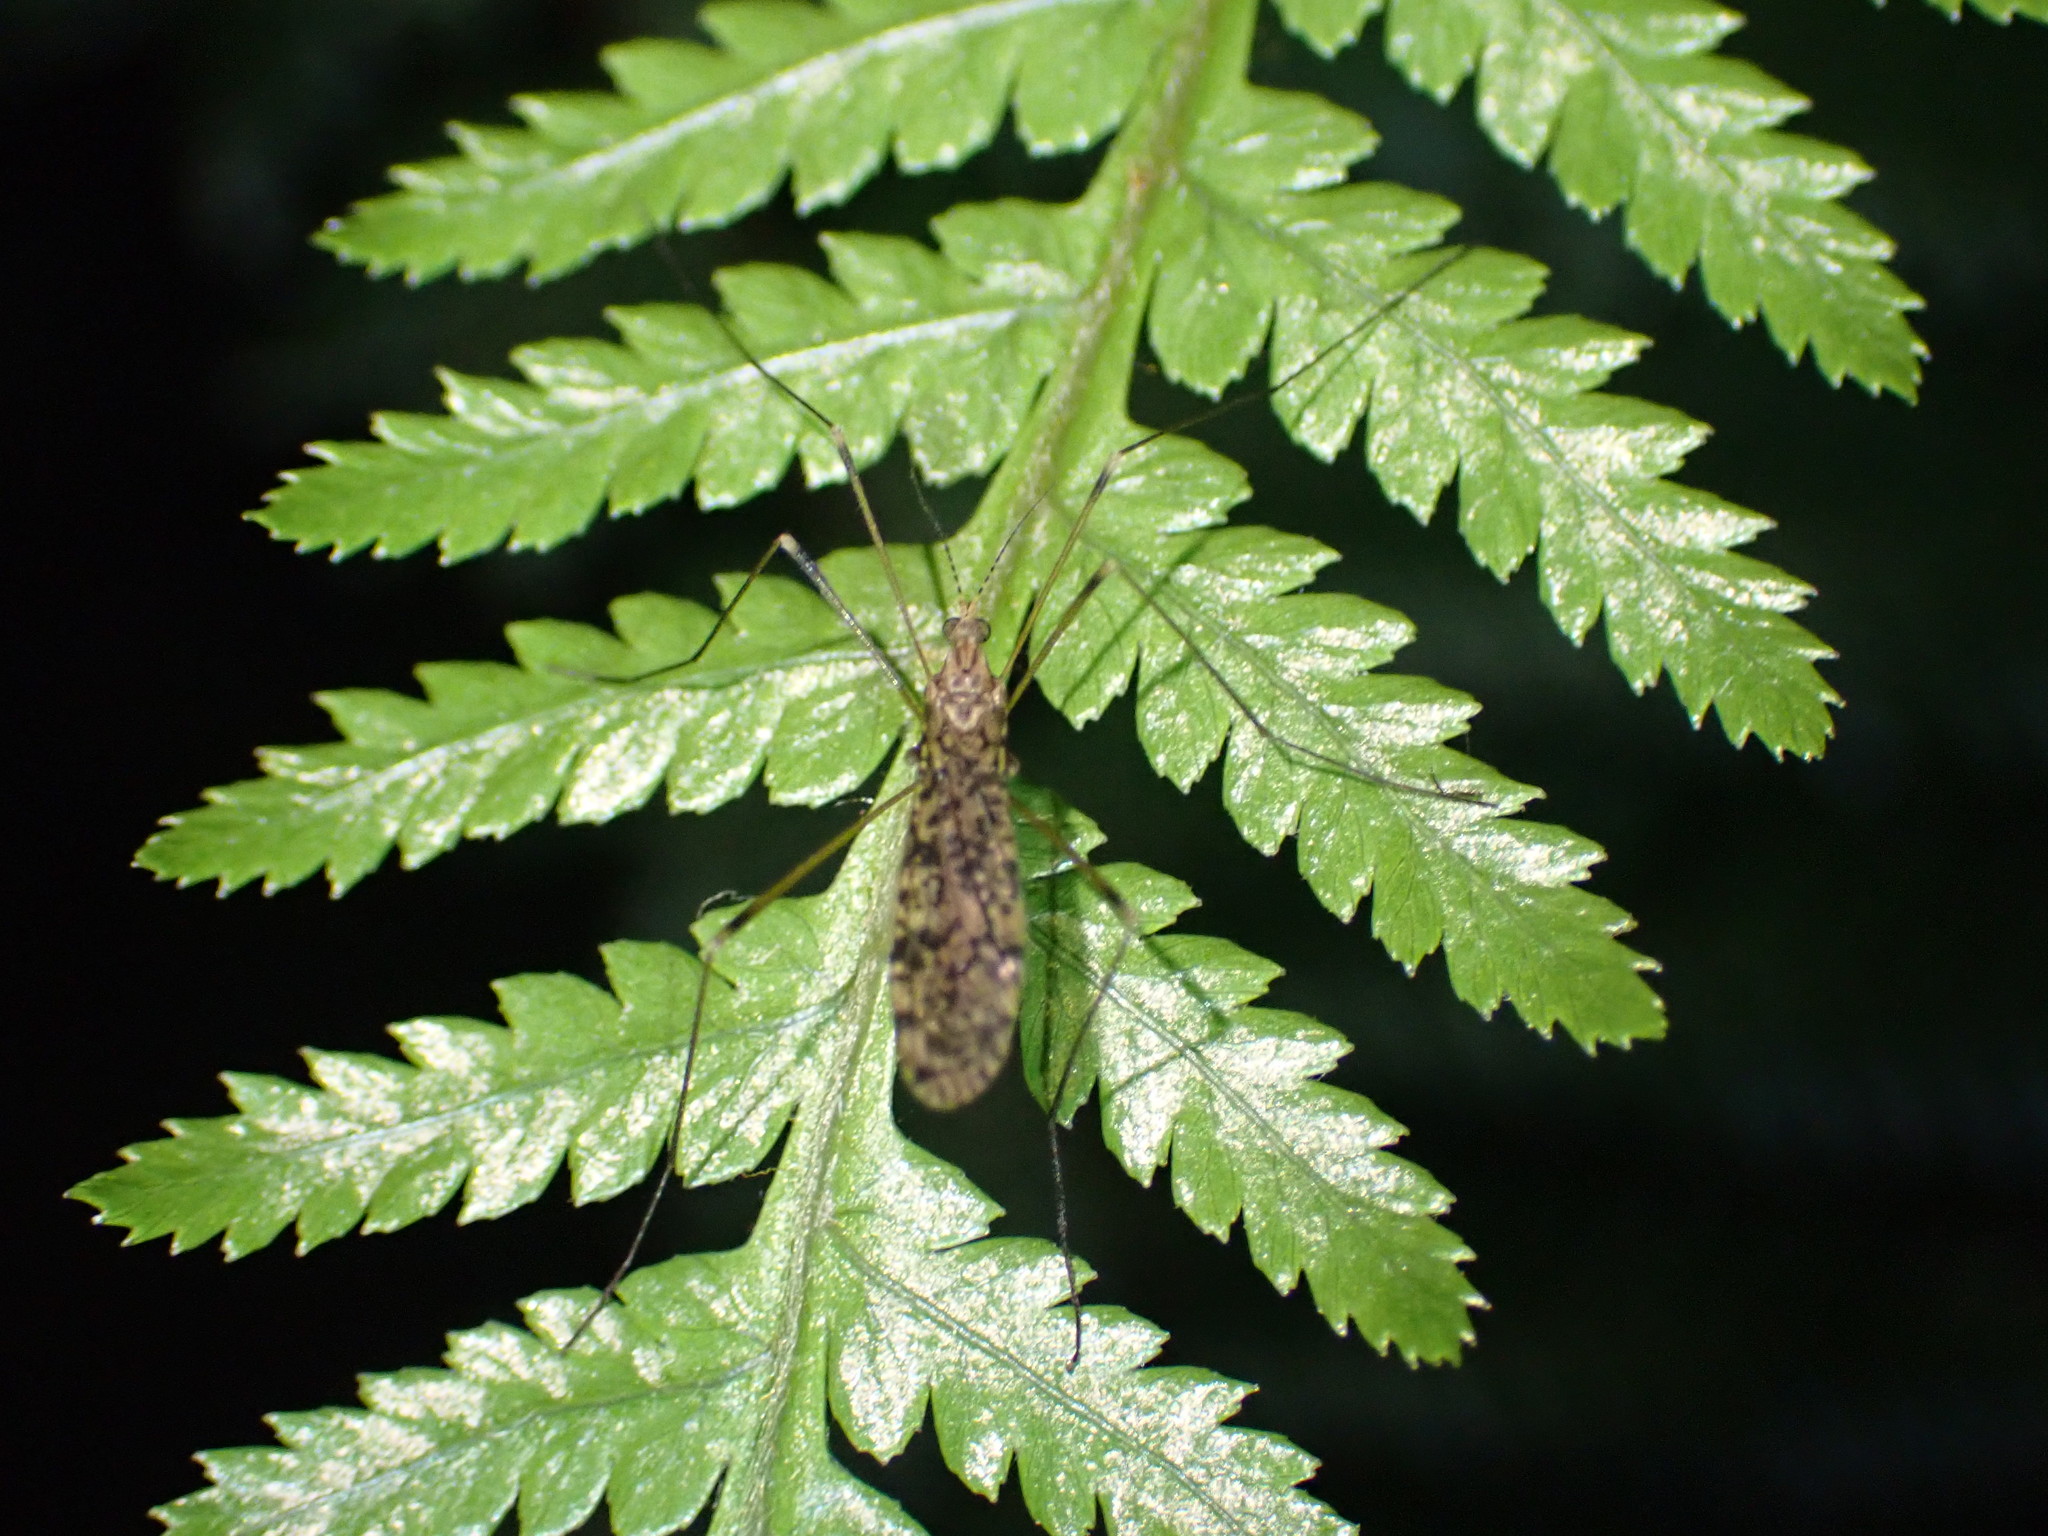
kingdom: Animalia
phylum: Arthropoda
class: Insecta
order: Diptera
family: Limoniidae
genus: Austrolimnophila
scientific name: Austrolimnophila leucomelas
